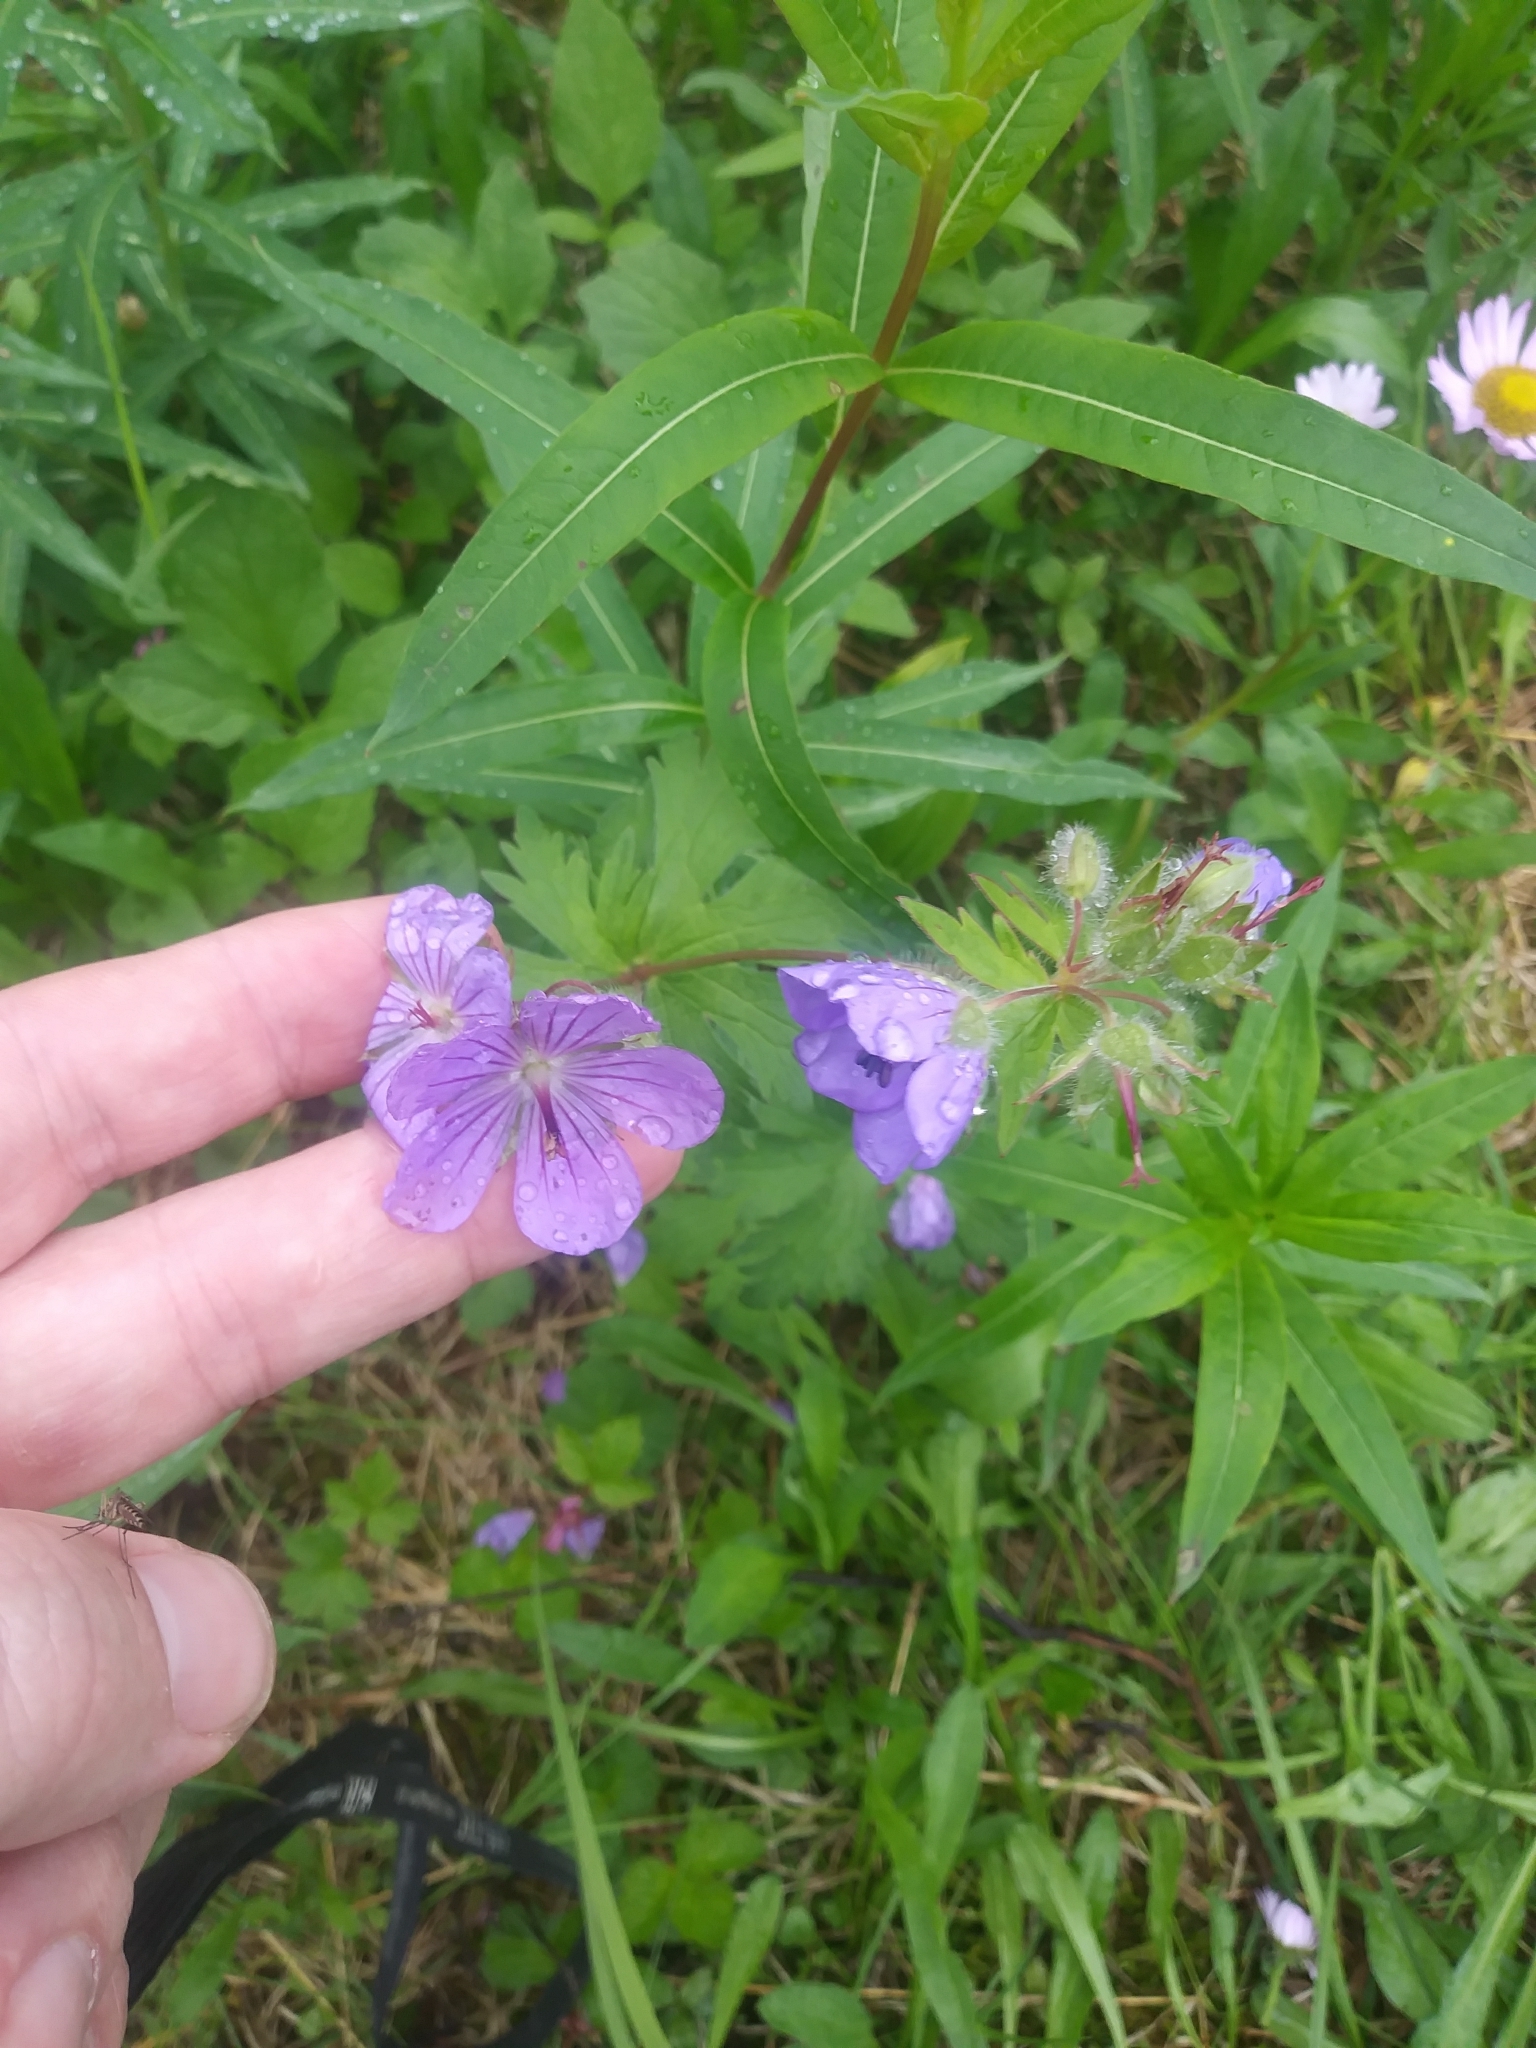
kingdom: Plantae
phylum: Tracheophyta
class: Magnoliopsida
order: Geraniales
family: Geraniaceae
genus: Geranium
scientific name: Geranium erianthum
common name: Northern crane's-bill
